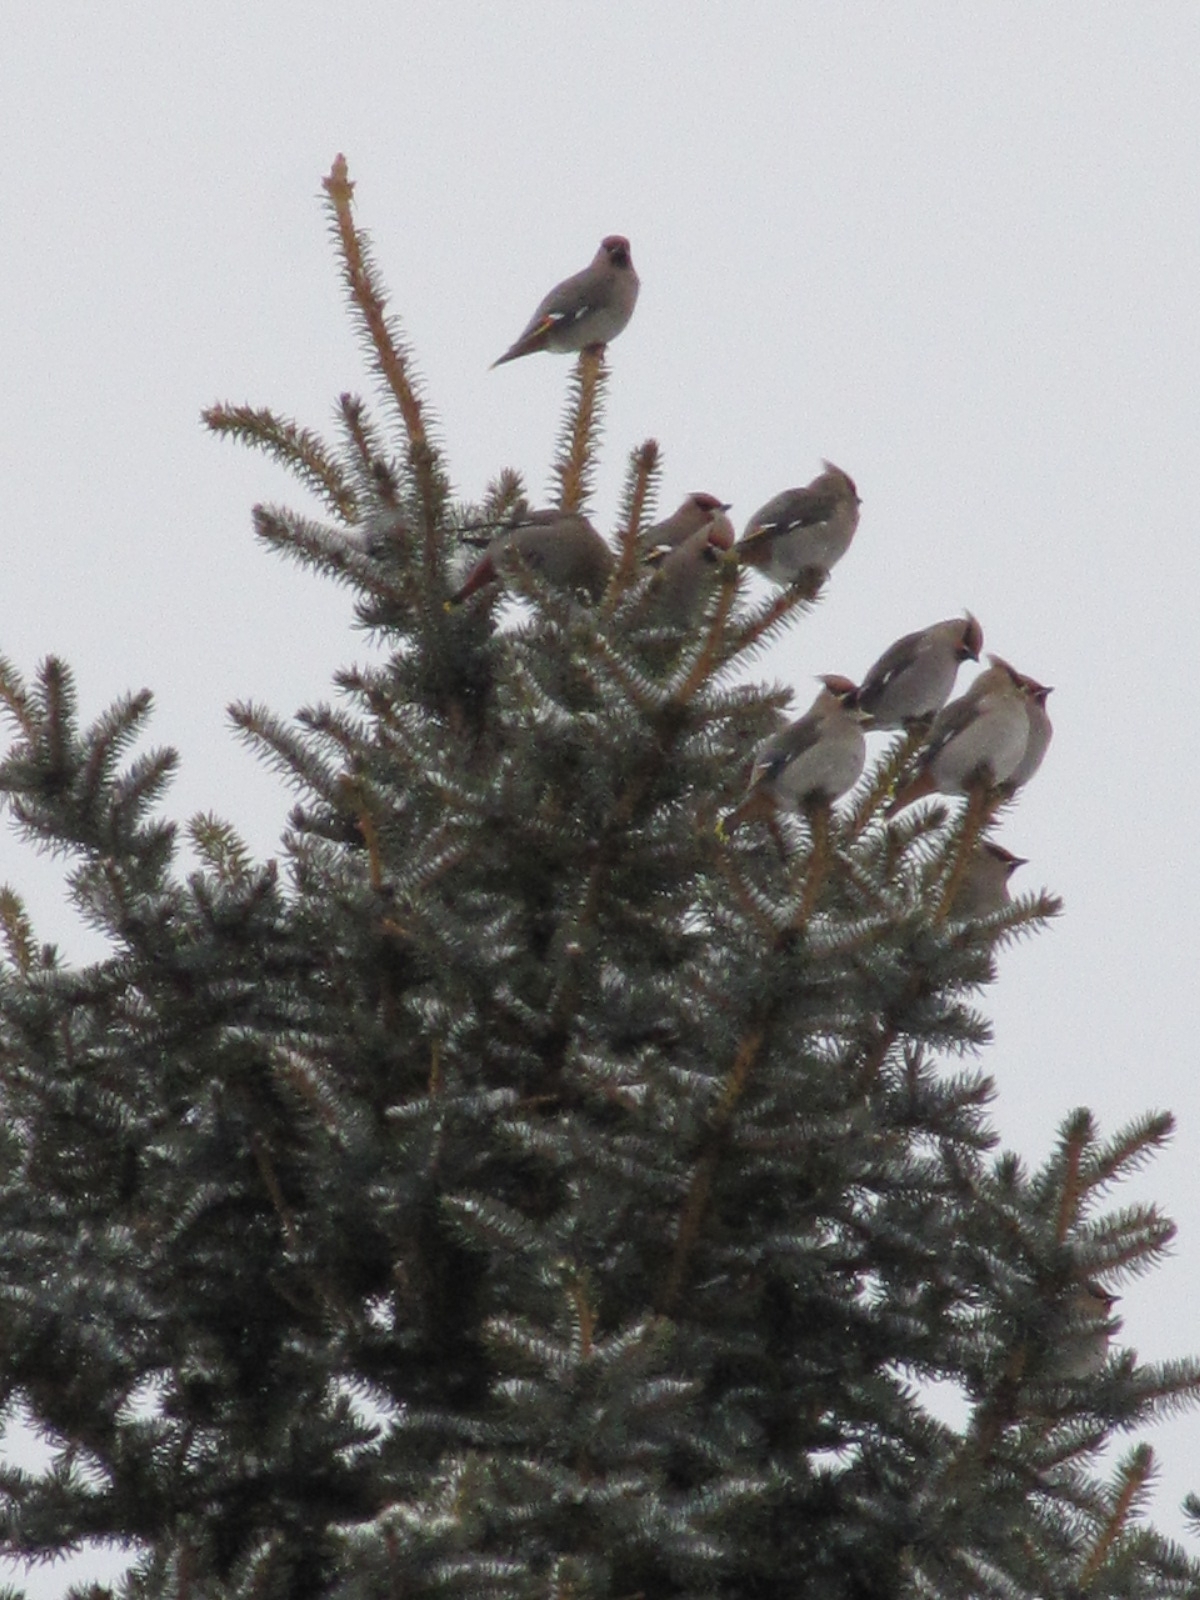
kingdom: Animalia
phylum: Chordata
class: Aves
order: Passeriformes
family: Bombycillidae
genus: Bombycilla
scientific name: Bombycilla garrulus
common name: Bohemian waxwing
